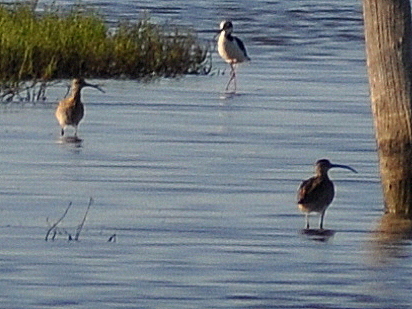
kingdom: Animalia
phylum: Chordata
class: Aves
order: Charadriiformes
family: Scolopacidae
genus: Numenius
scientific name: Numenius hudsonicus
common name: Hudsonian whimbrel
